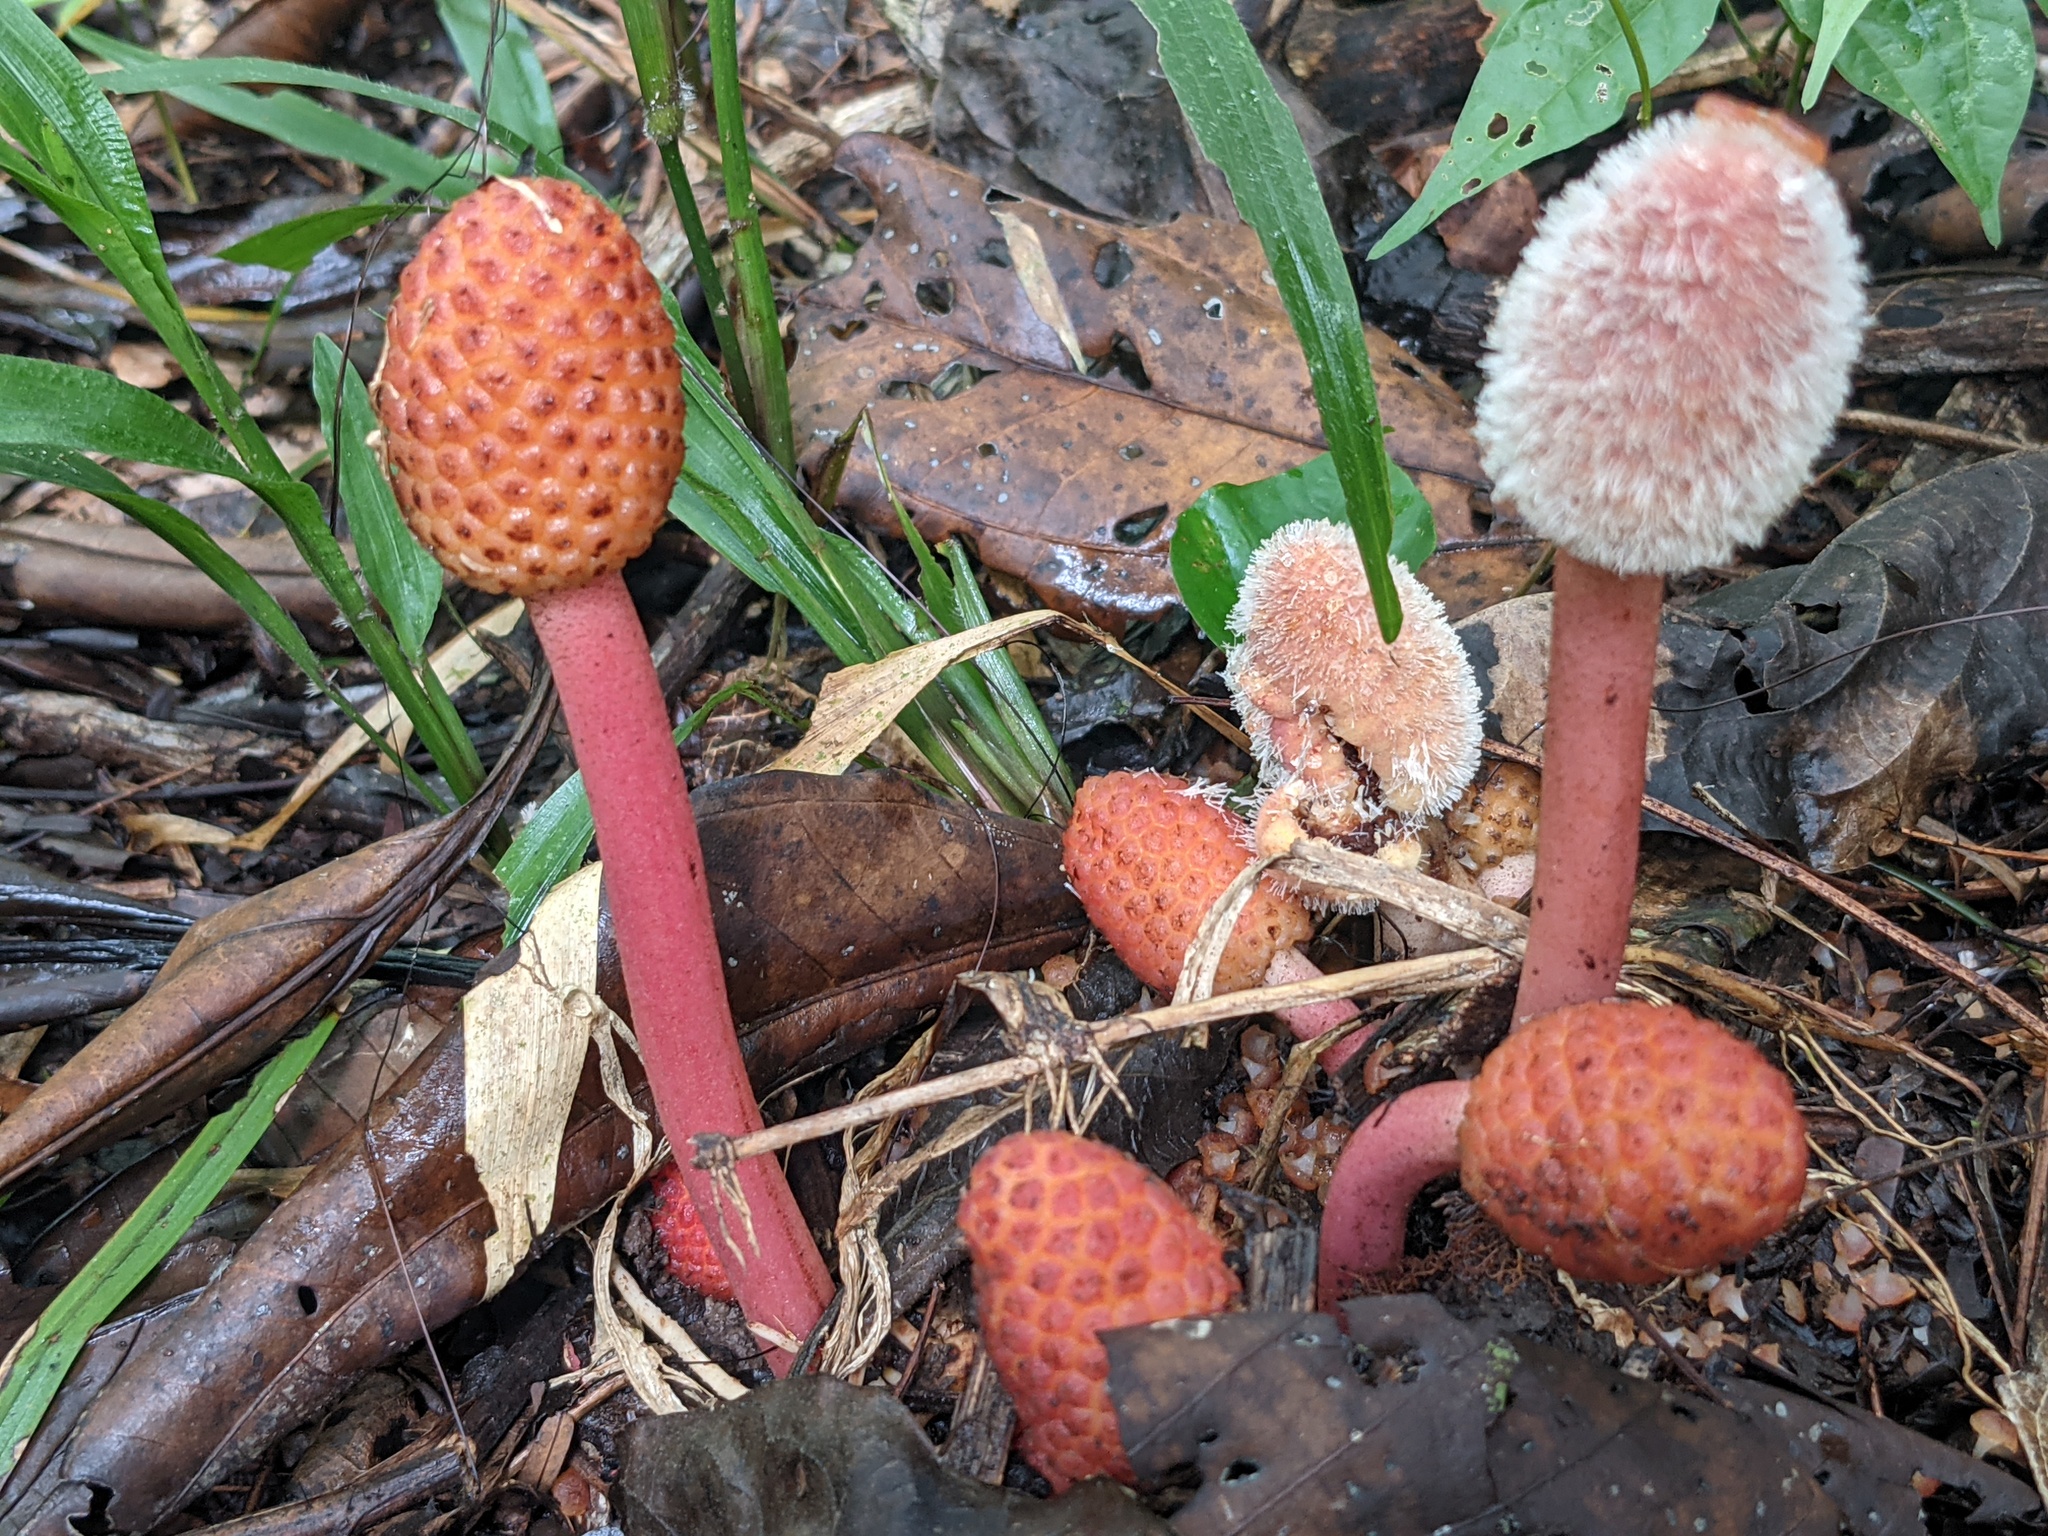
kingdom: Plantae
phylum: Tracheophyta
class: Magnoliopsida
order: Santalales
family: Balanophoraceae
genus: Helosis
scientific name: Helosis cayennensis
